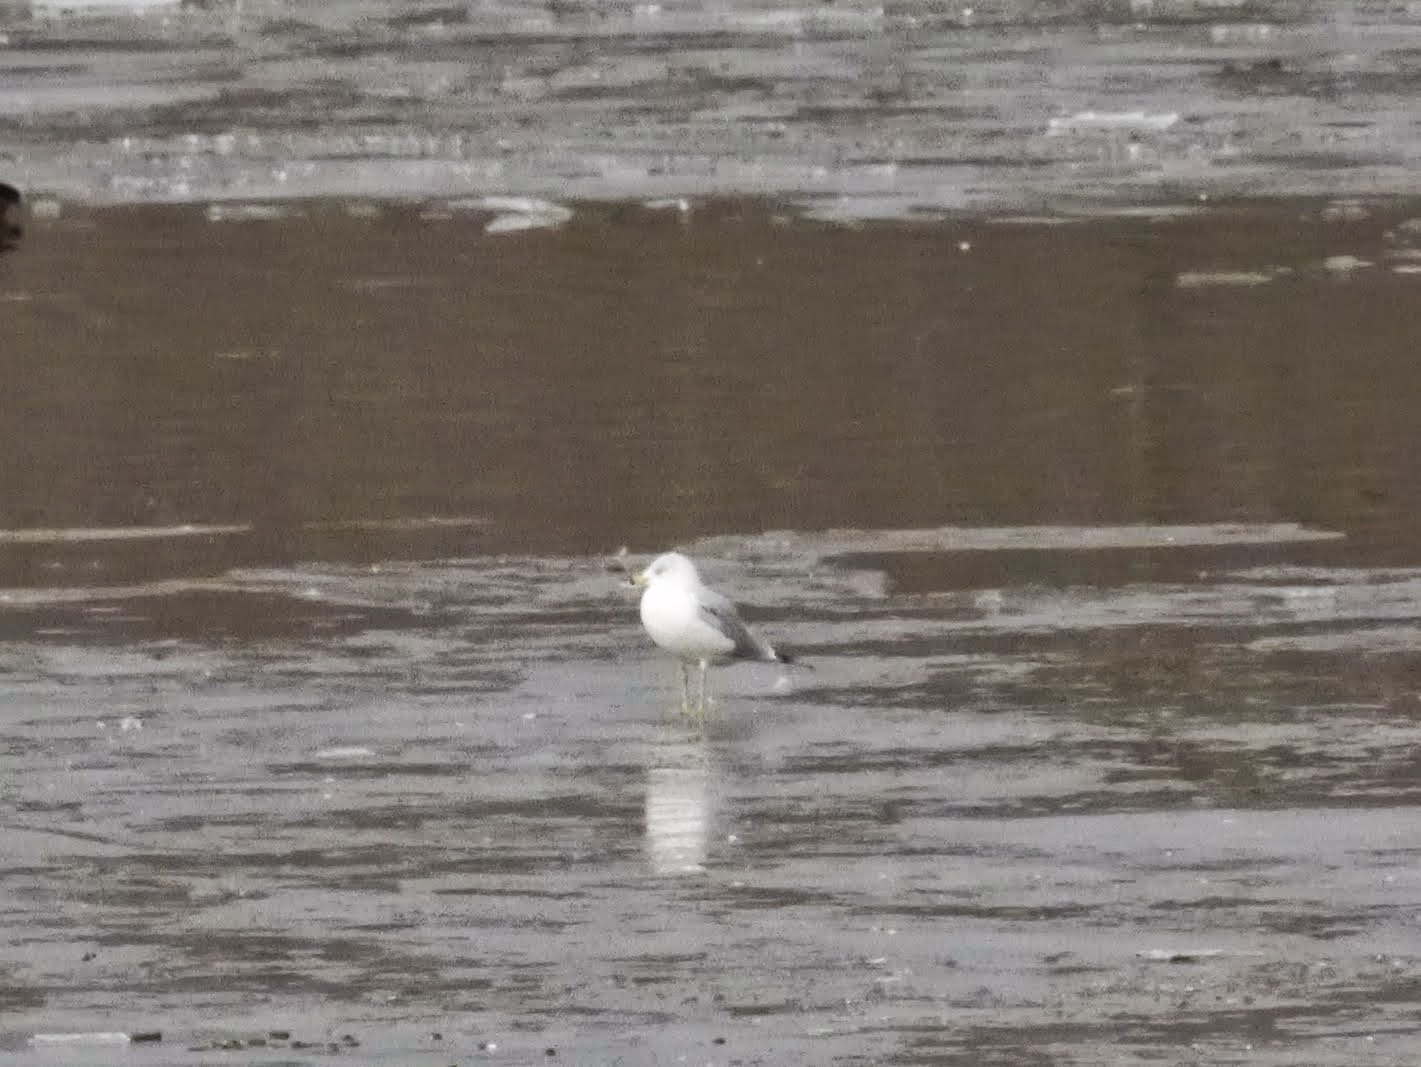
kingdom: Animalia
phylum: Chordata
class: Aves
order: Charadriiformes
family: Laridae
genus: Larus
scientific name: Larus delawarensis
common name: Ring-billed gull
